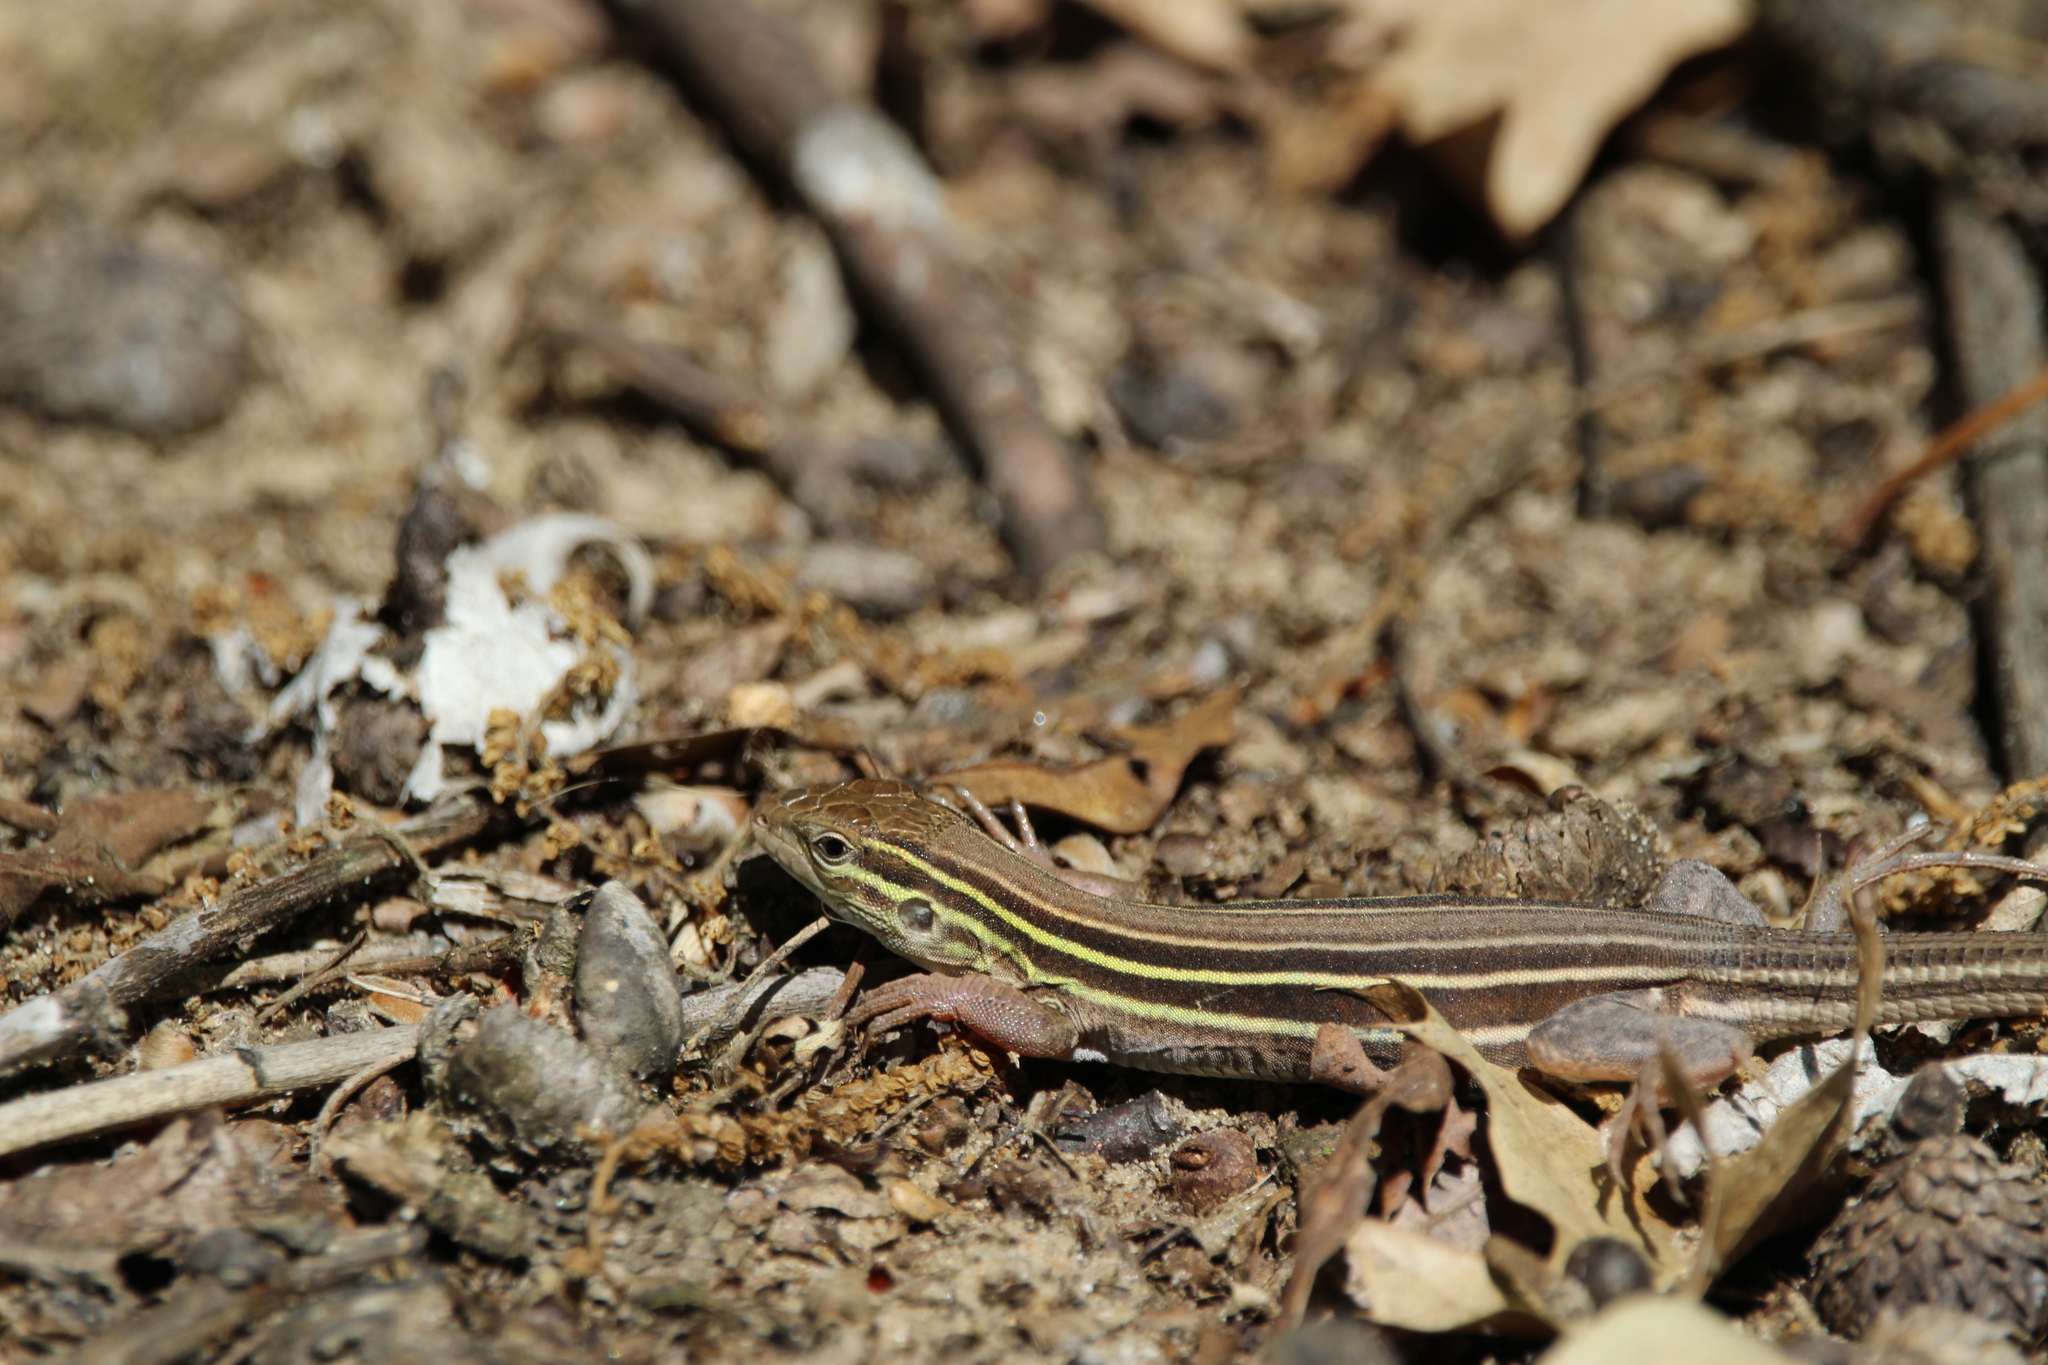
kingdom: Animalia
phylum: Chordata
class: Squamata
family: Teiidae
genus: Aspidoscelis
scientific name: Aspidoscelis sexlineatus
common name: Six-lined racerunner
